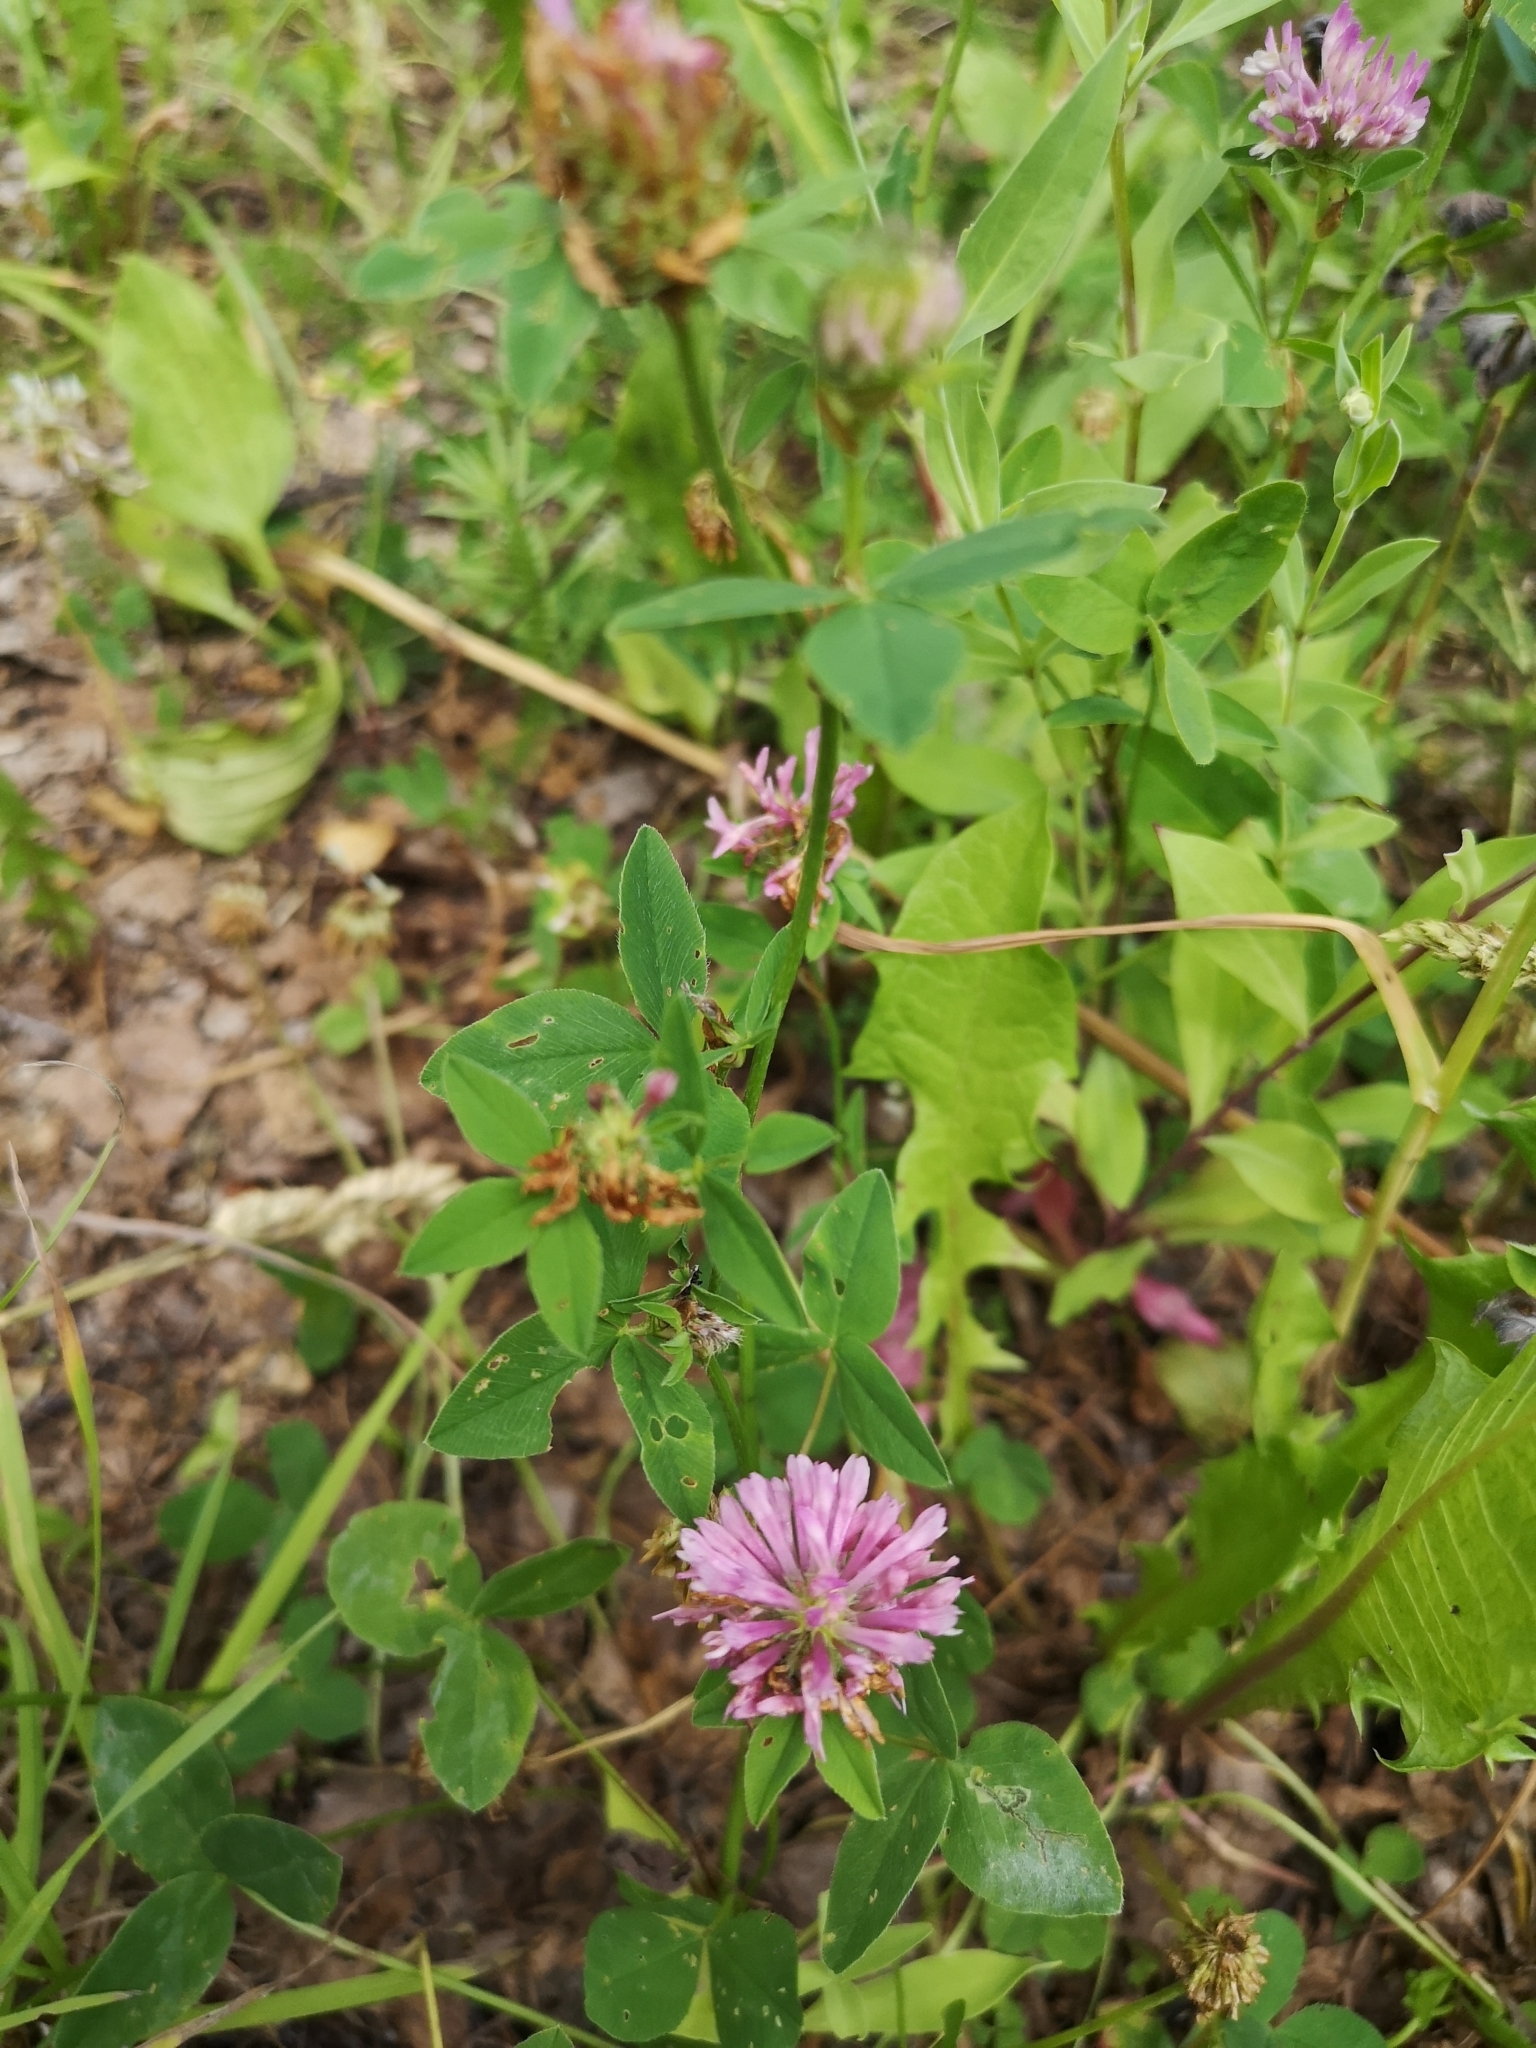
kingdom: Plantae
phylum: Tracheophyta
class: Magnoliopsida
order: Fabales
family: Fabaceae
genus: Trifolium
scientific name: Trifolium pratense
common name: Red clover
